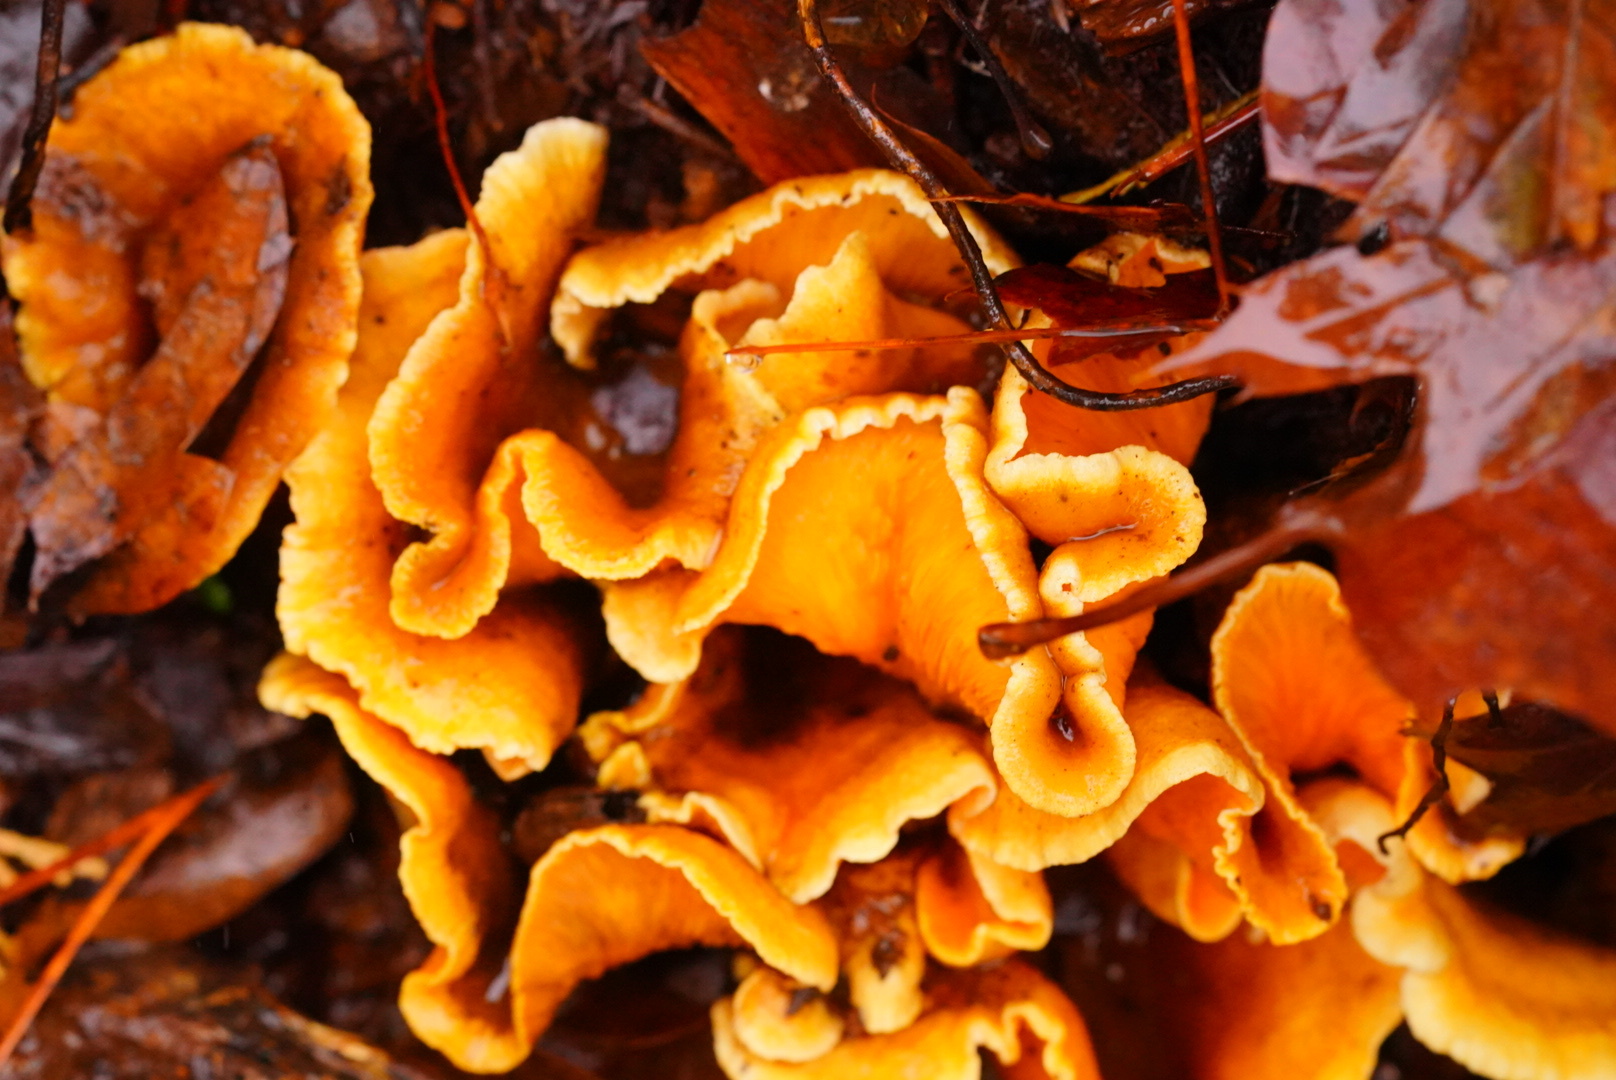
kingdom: Fungi
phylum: Basidiomycota
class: Agaricomycetes
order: Agaricales
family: Phyllotopsidaceae
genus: Phyllotopsis
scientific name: Phyllotopsis nidulans
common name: Orange mock oyster
